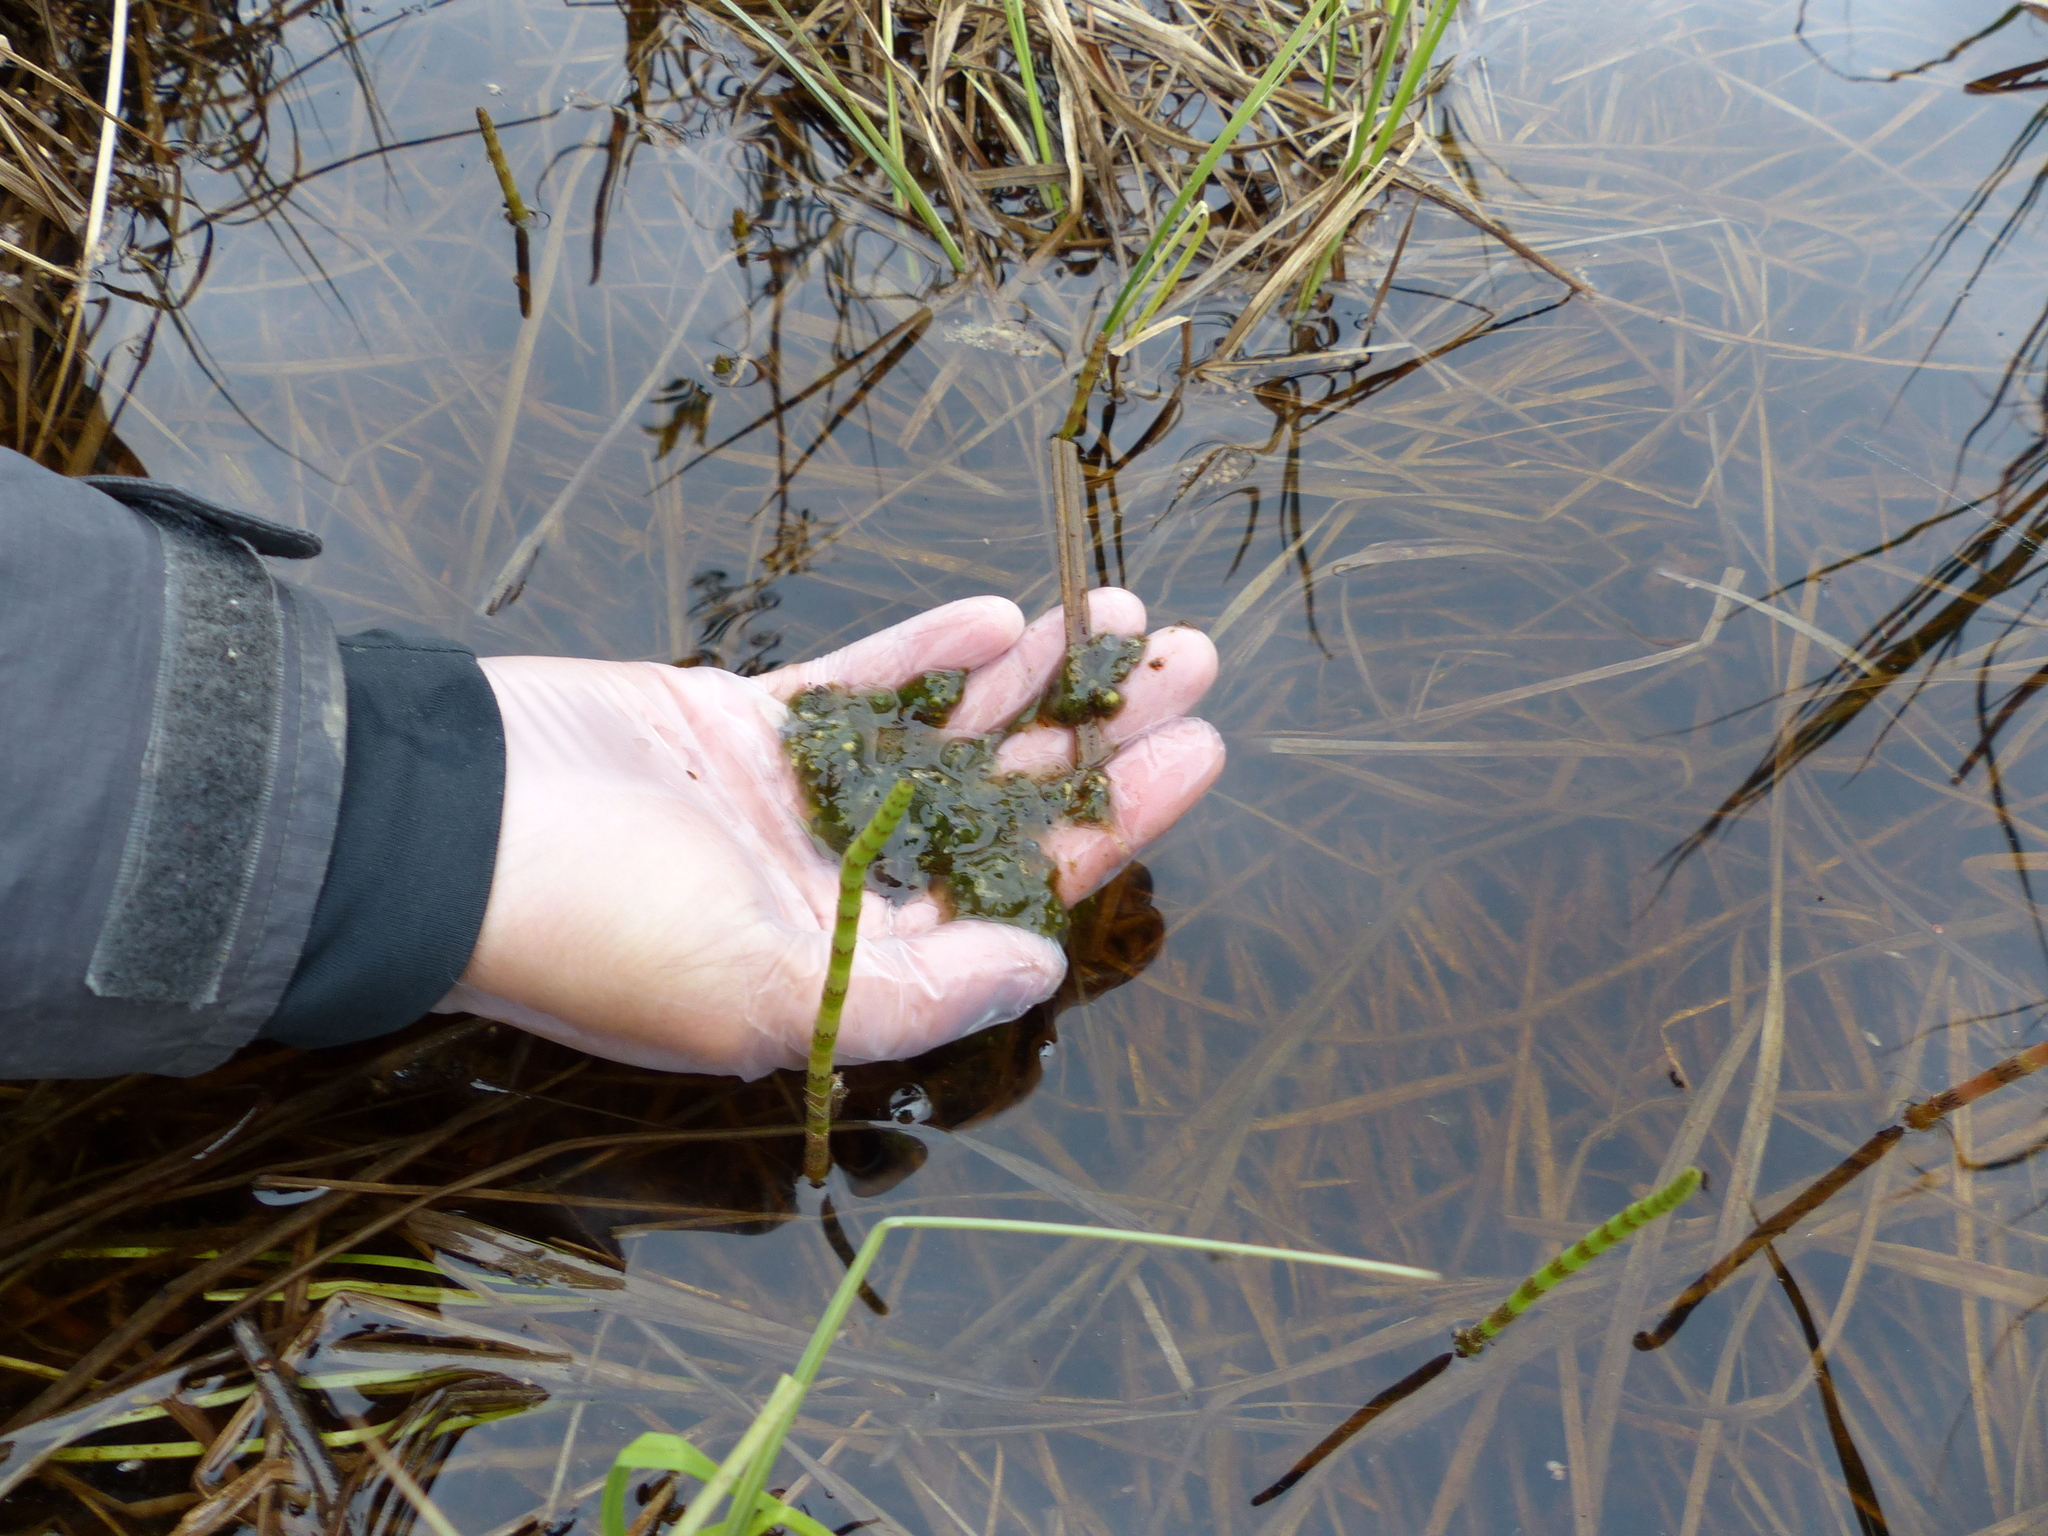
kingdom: Animalia
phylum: Chordata
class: Amphibia
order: Anura
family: Ranidae
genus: Lithobates
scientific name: Lithobates sylvaticus
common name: Wood frog
